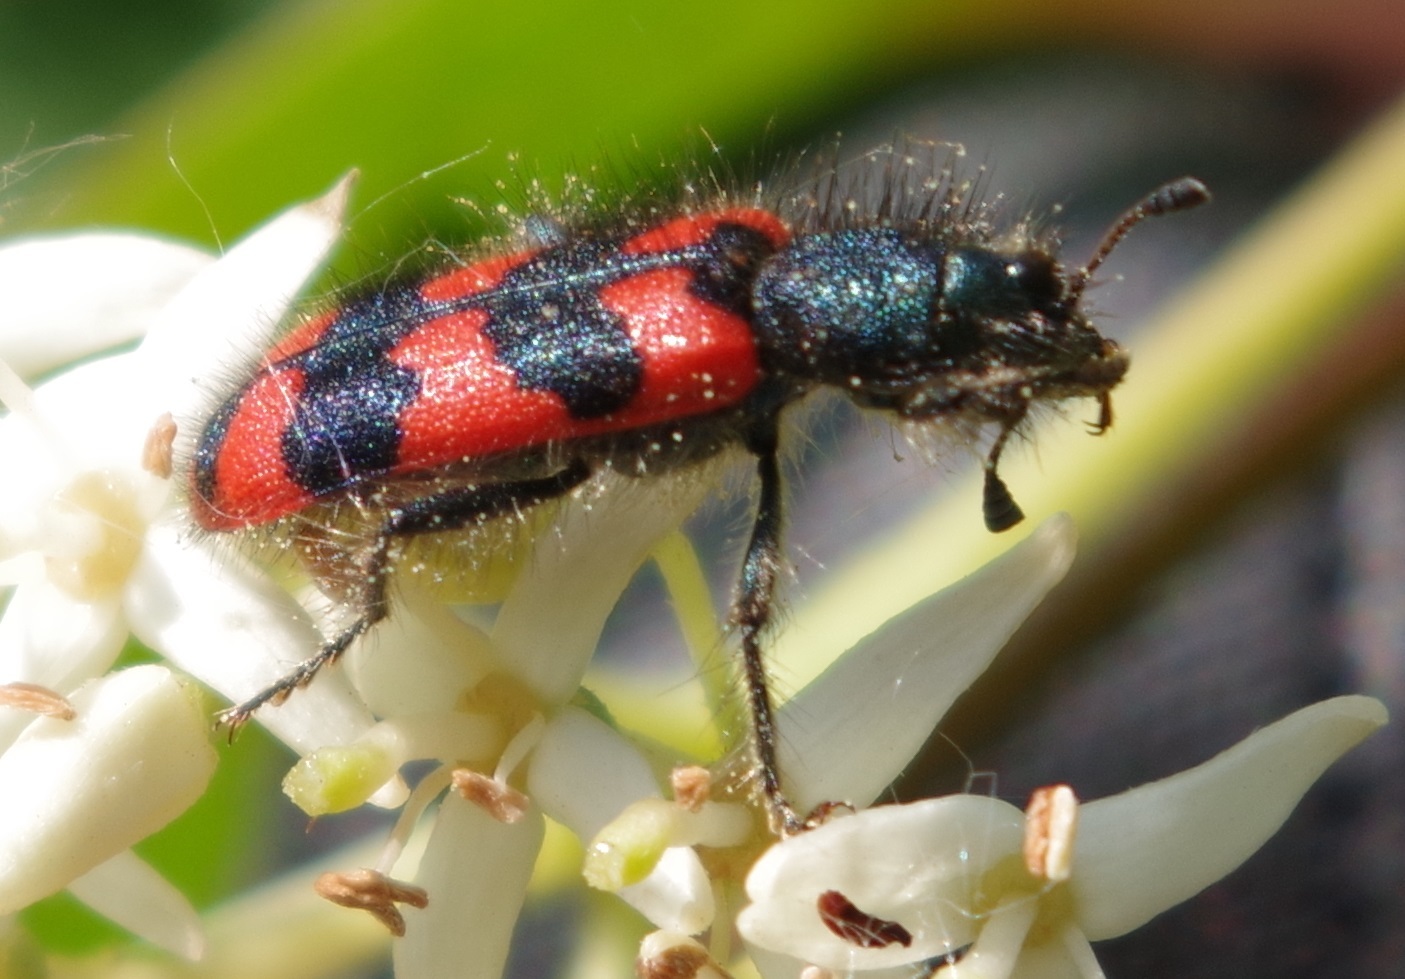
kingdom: Animalia
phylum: Arthropoda
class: Insecta
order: Coleoptera
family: Cleridae
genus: Trichodes
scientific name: Trichodes alvearius
